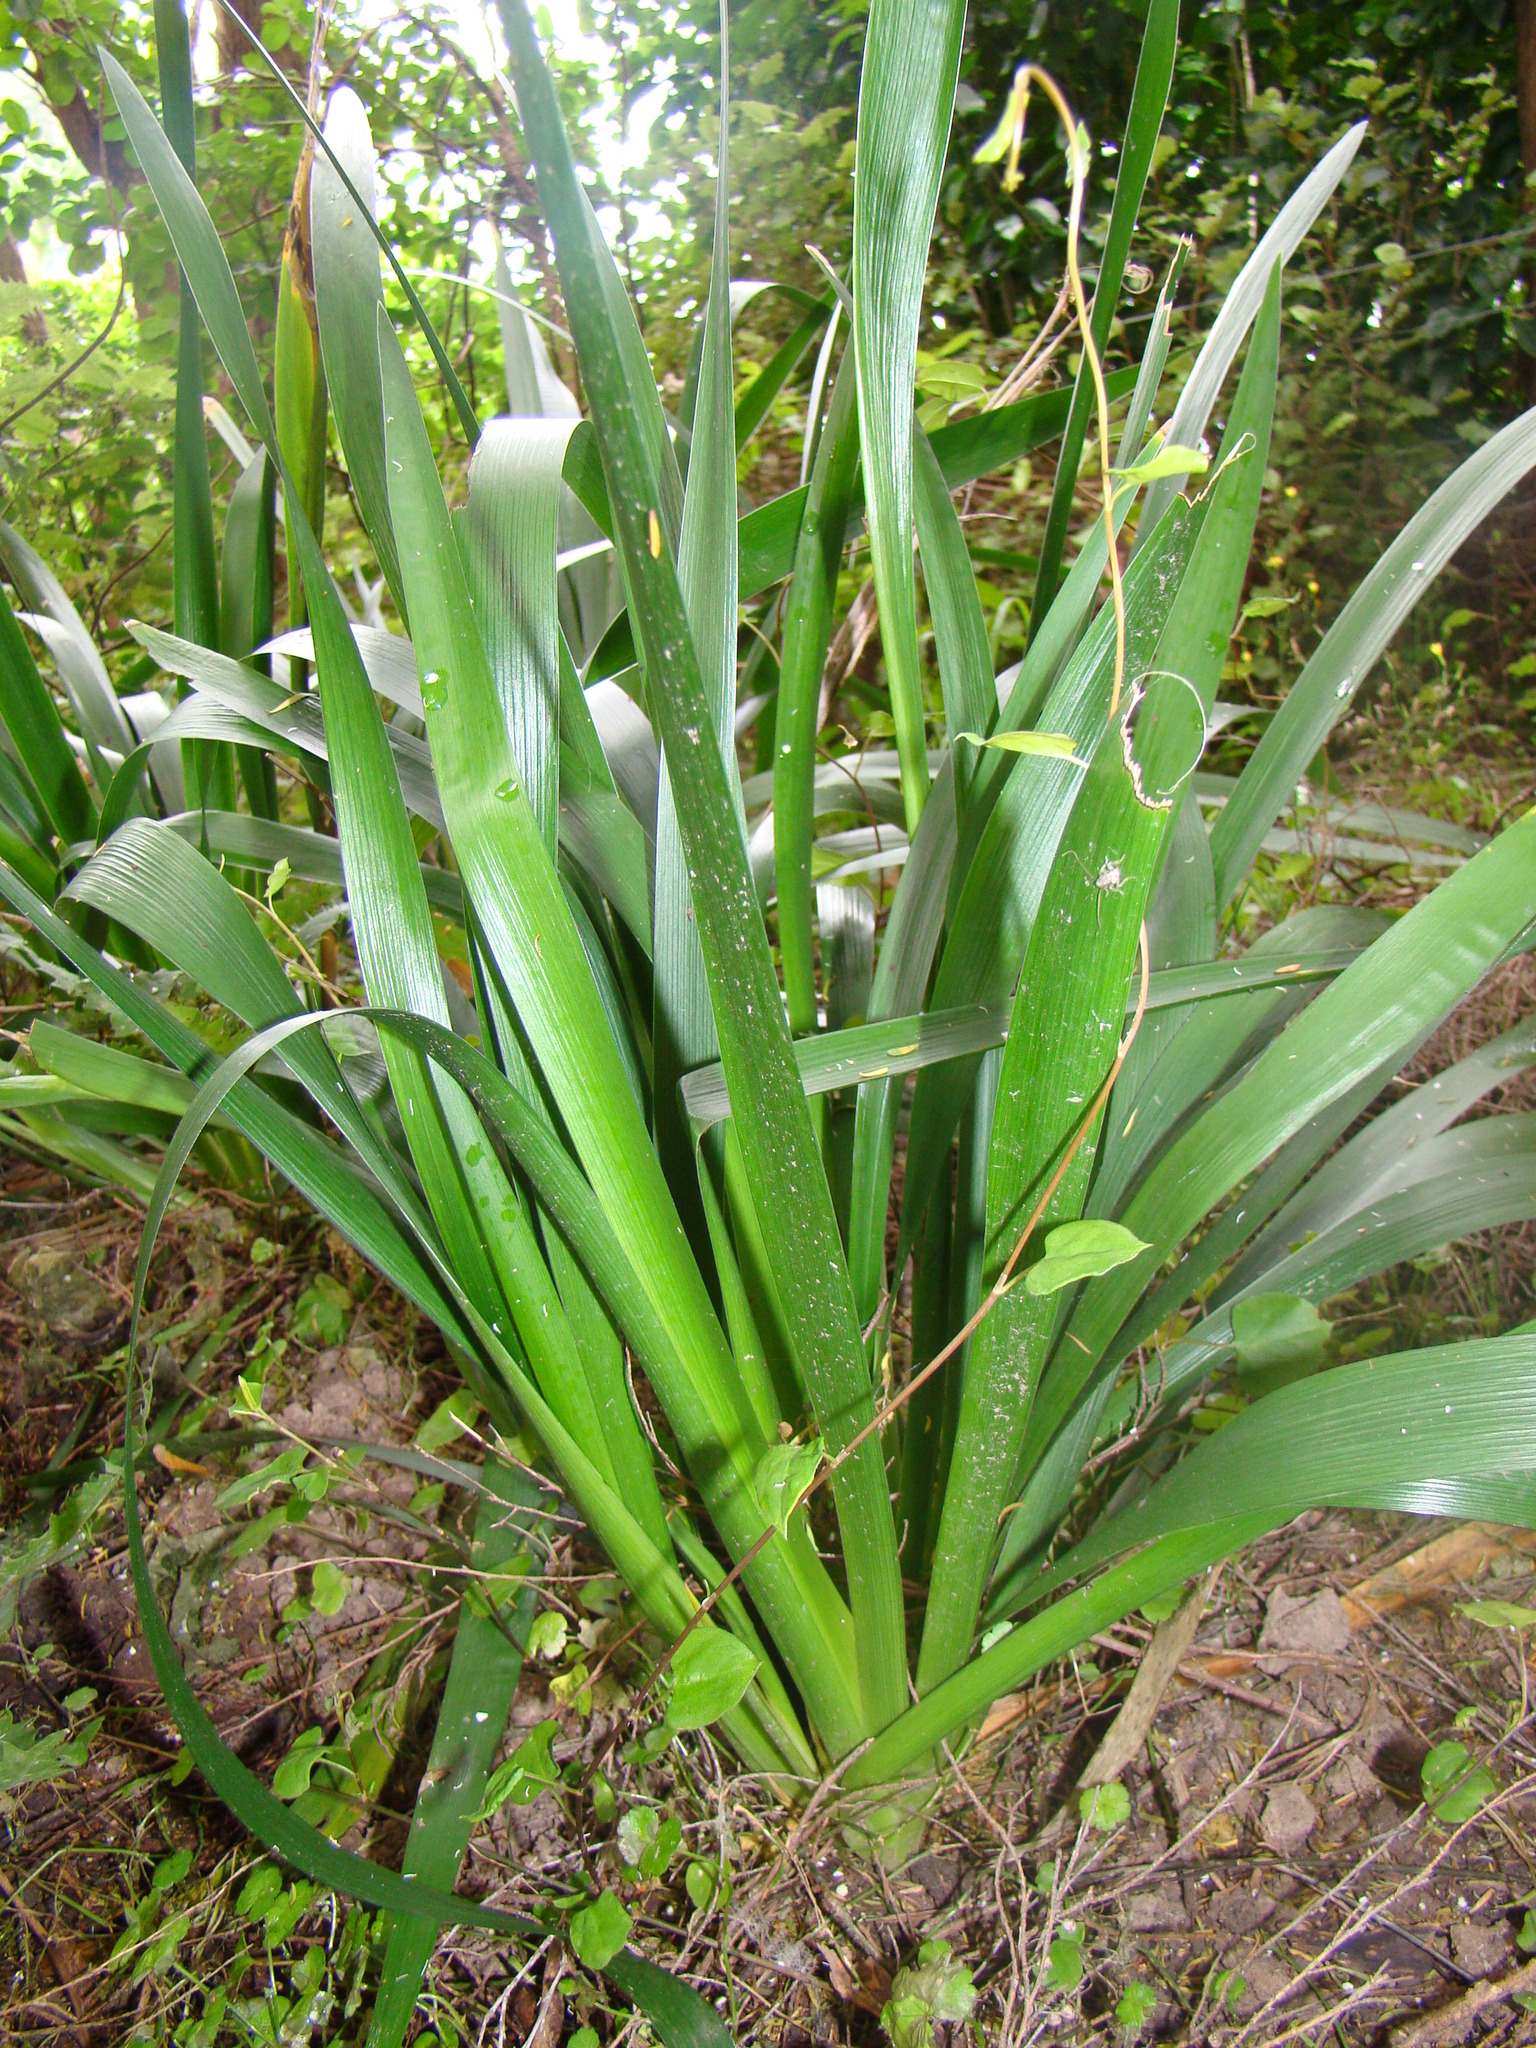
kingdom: Plantae
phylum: Tracheophyta
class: Liliopsida
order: Asparagales
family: Iridaceae
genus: Iris
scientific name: Iris
